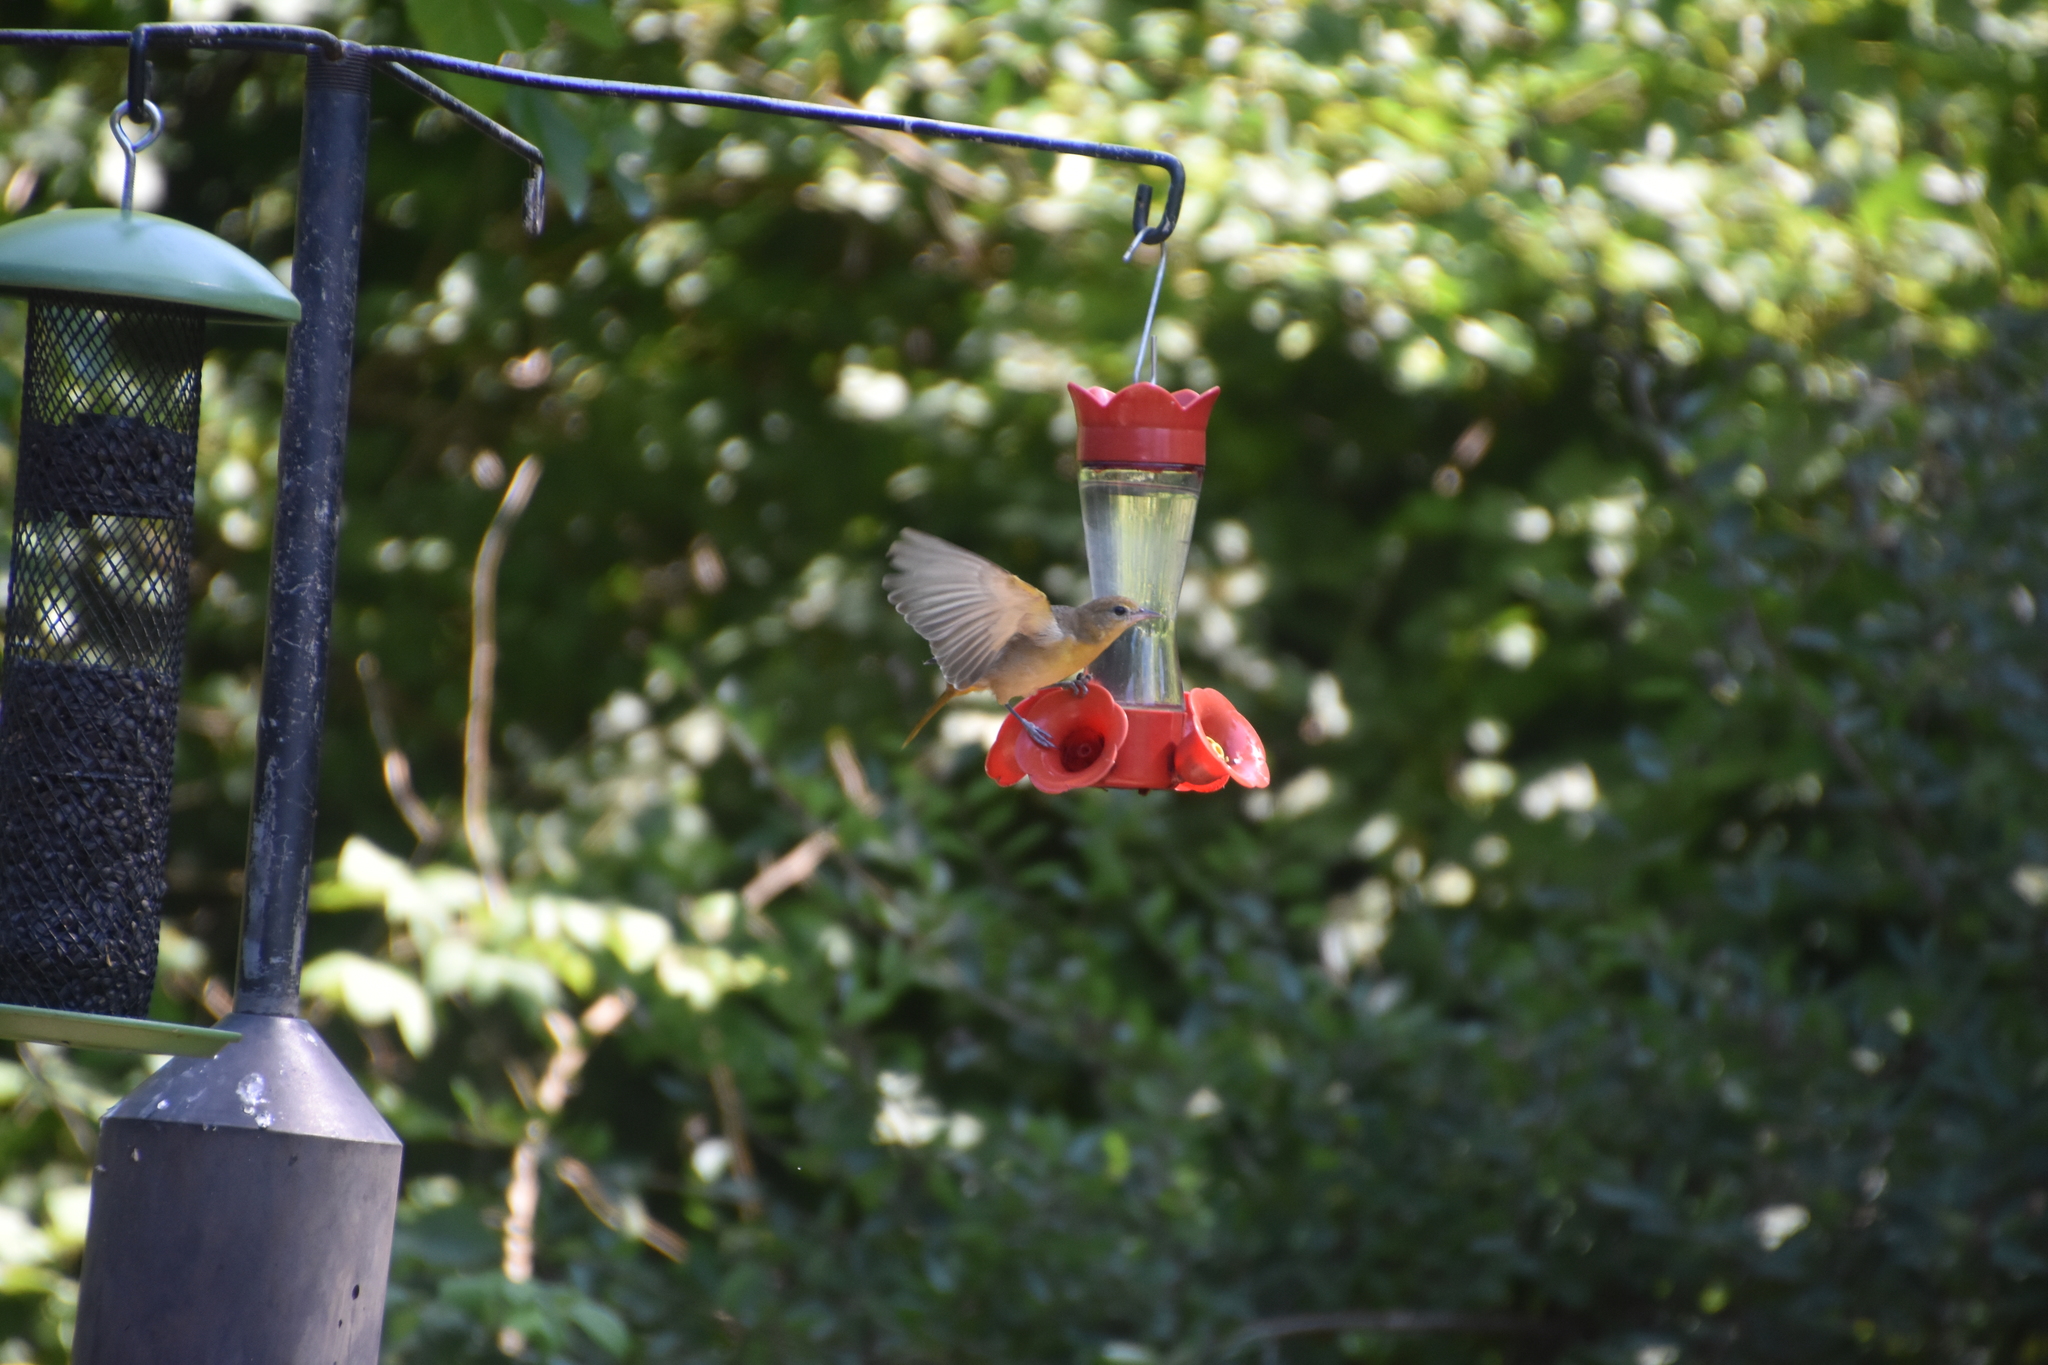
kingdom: Animalia
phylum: Chordata
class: Aves
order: Passeriformes
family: Icteridae
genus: Icterus
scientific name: Icterus galbula
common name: Baltimore oriole
